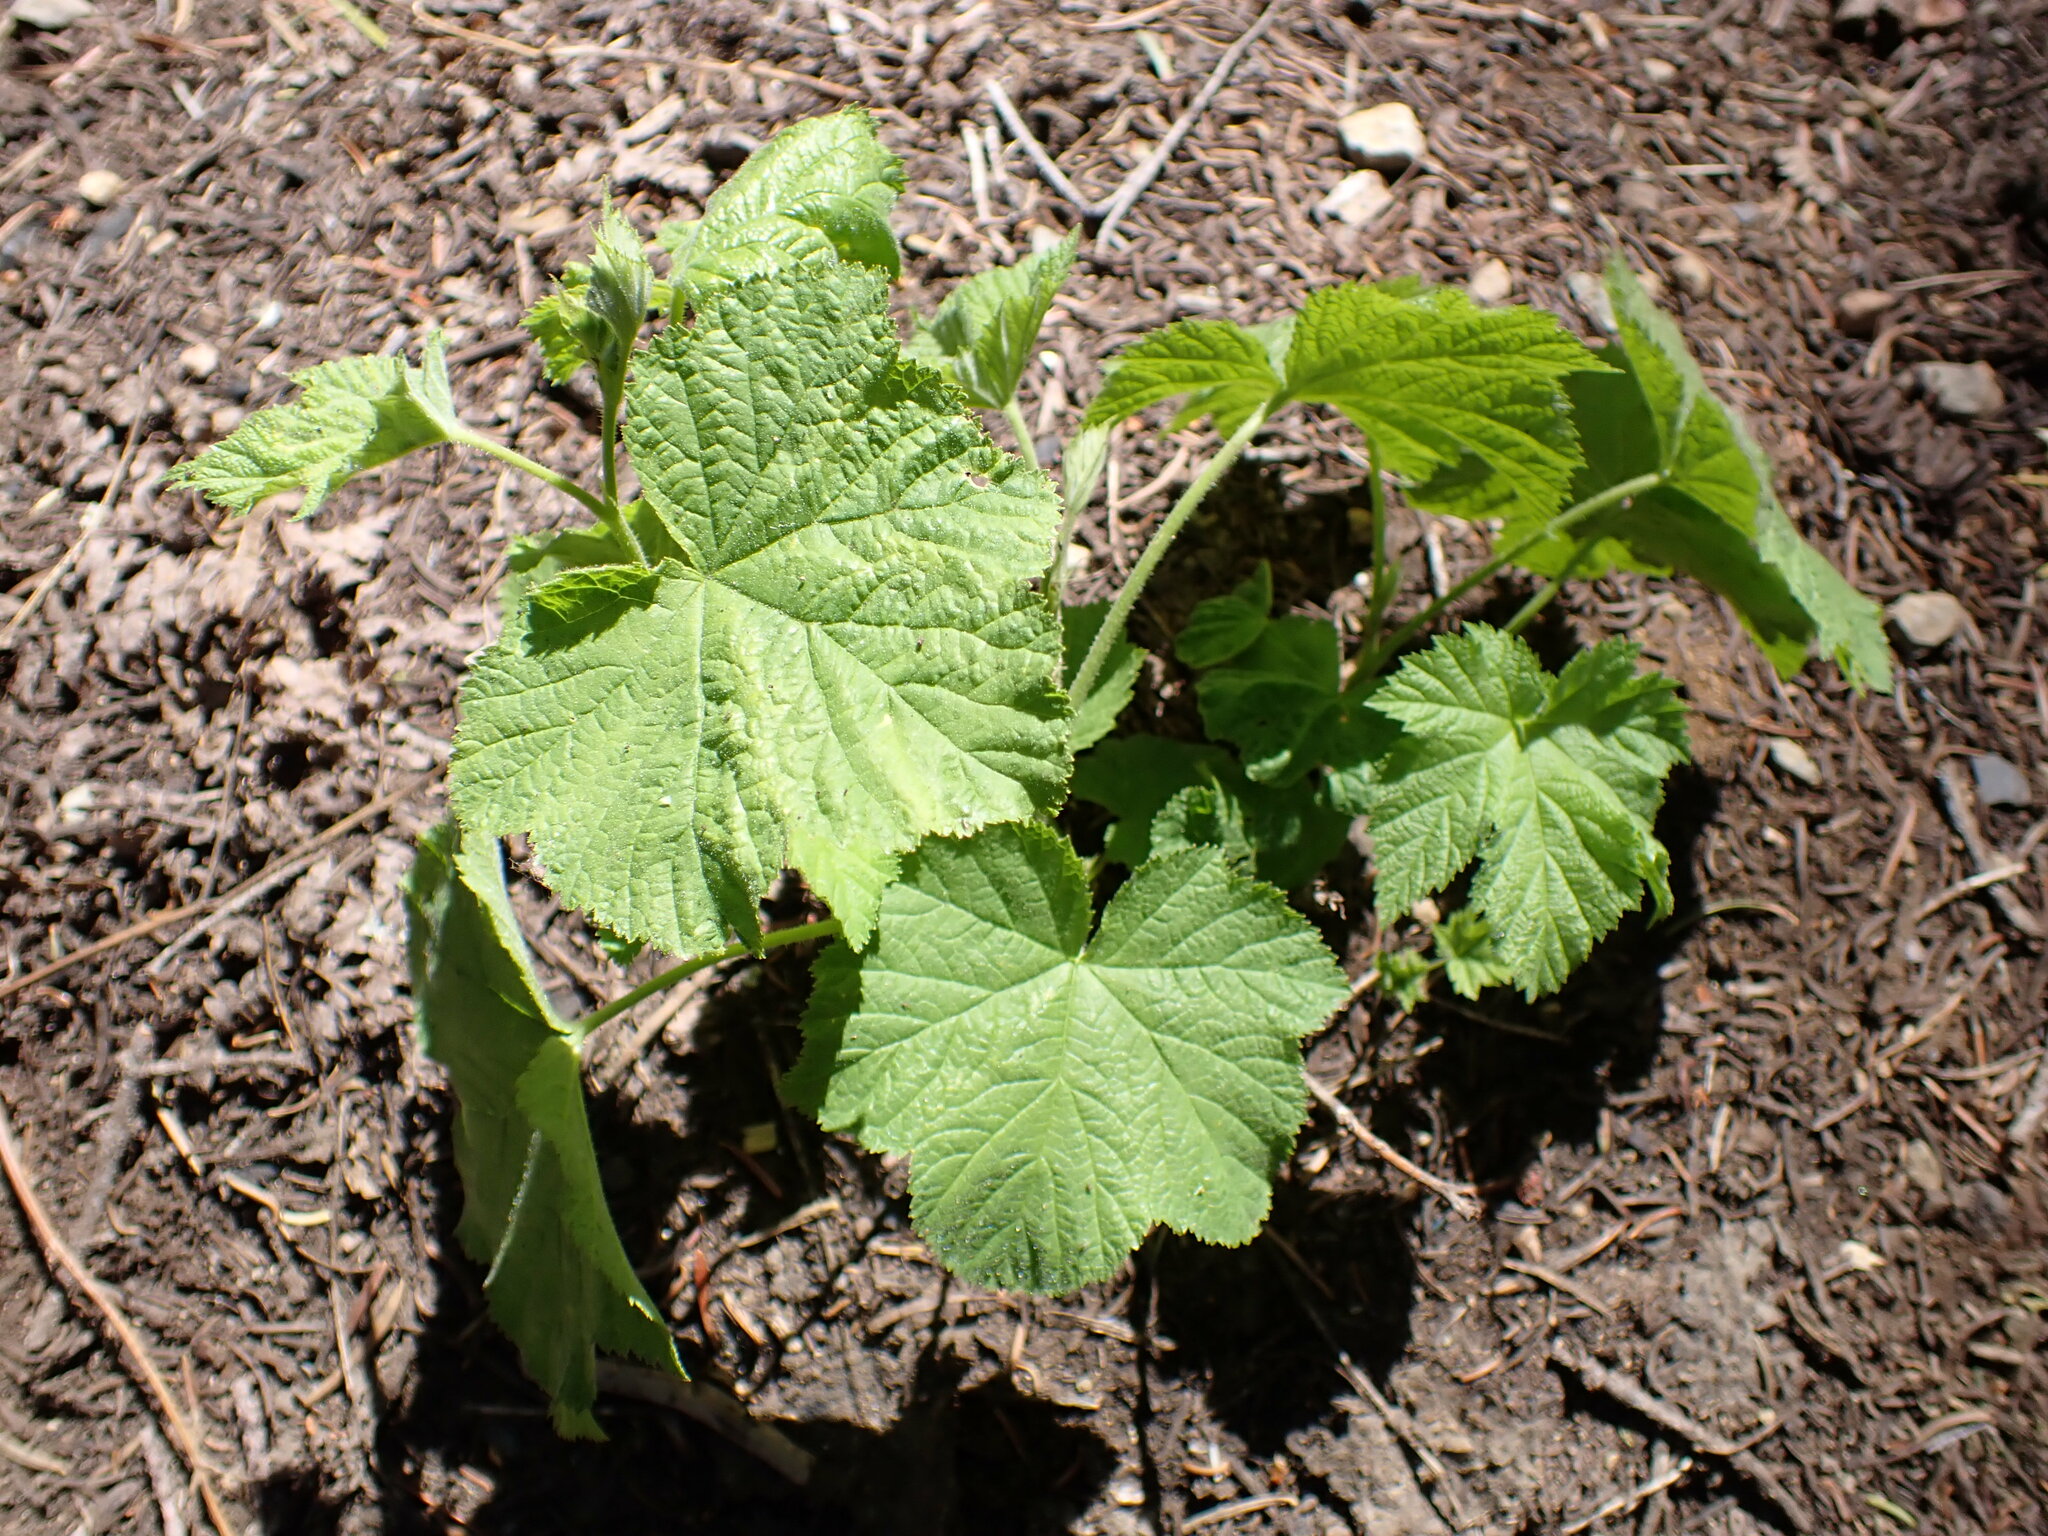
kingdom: Plantae
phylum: Tracheophyta
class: Magnoliopsida
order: Rosales
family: Rosaceae
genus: Rubus
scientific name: Rubus parviflorus
